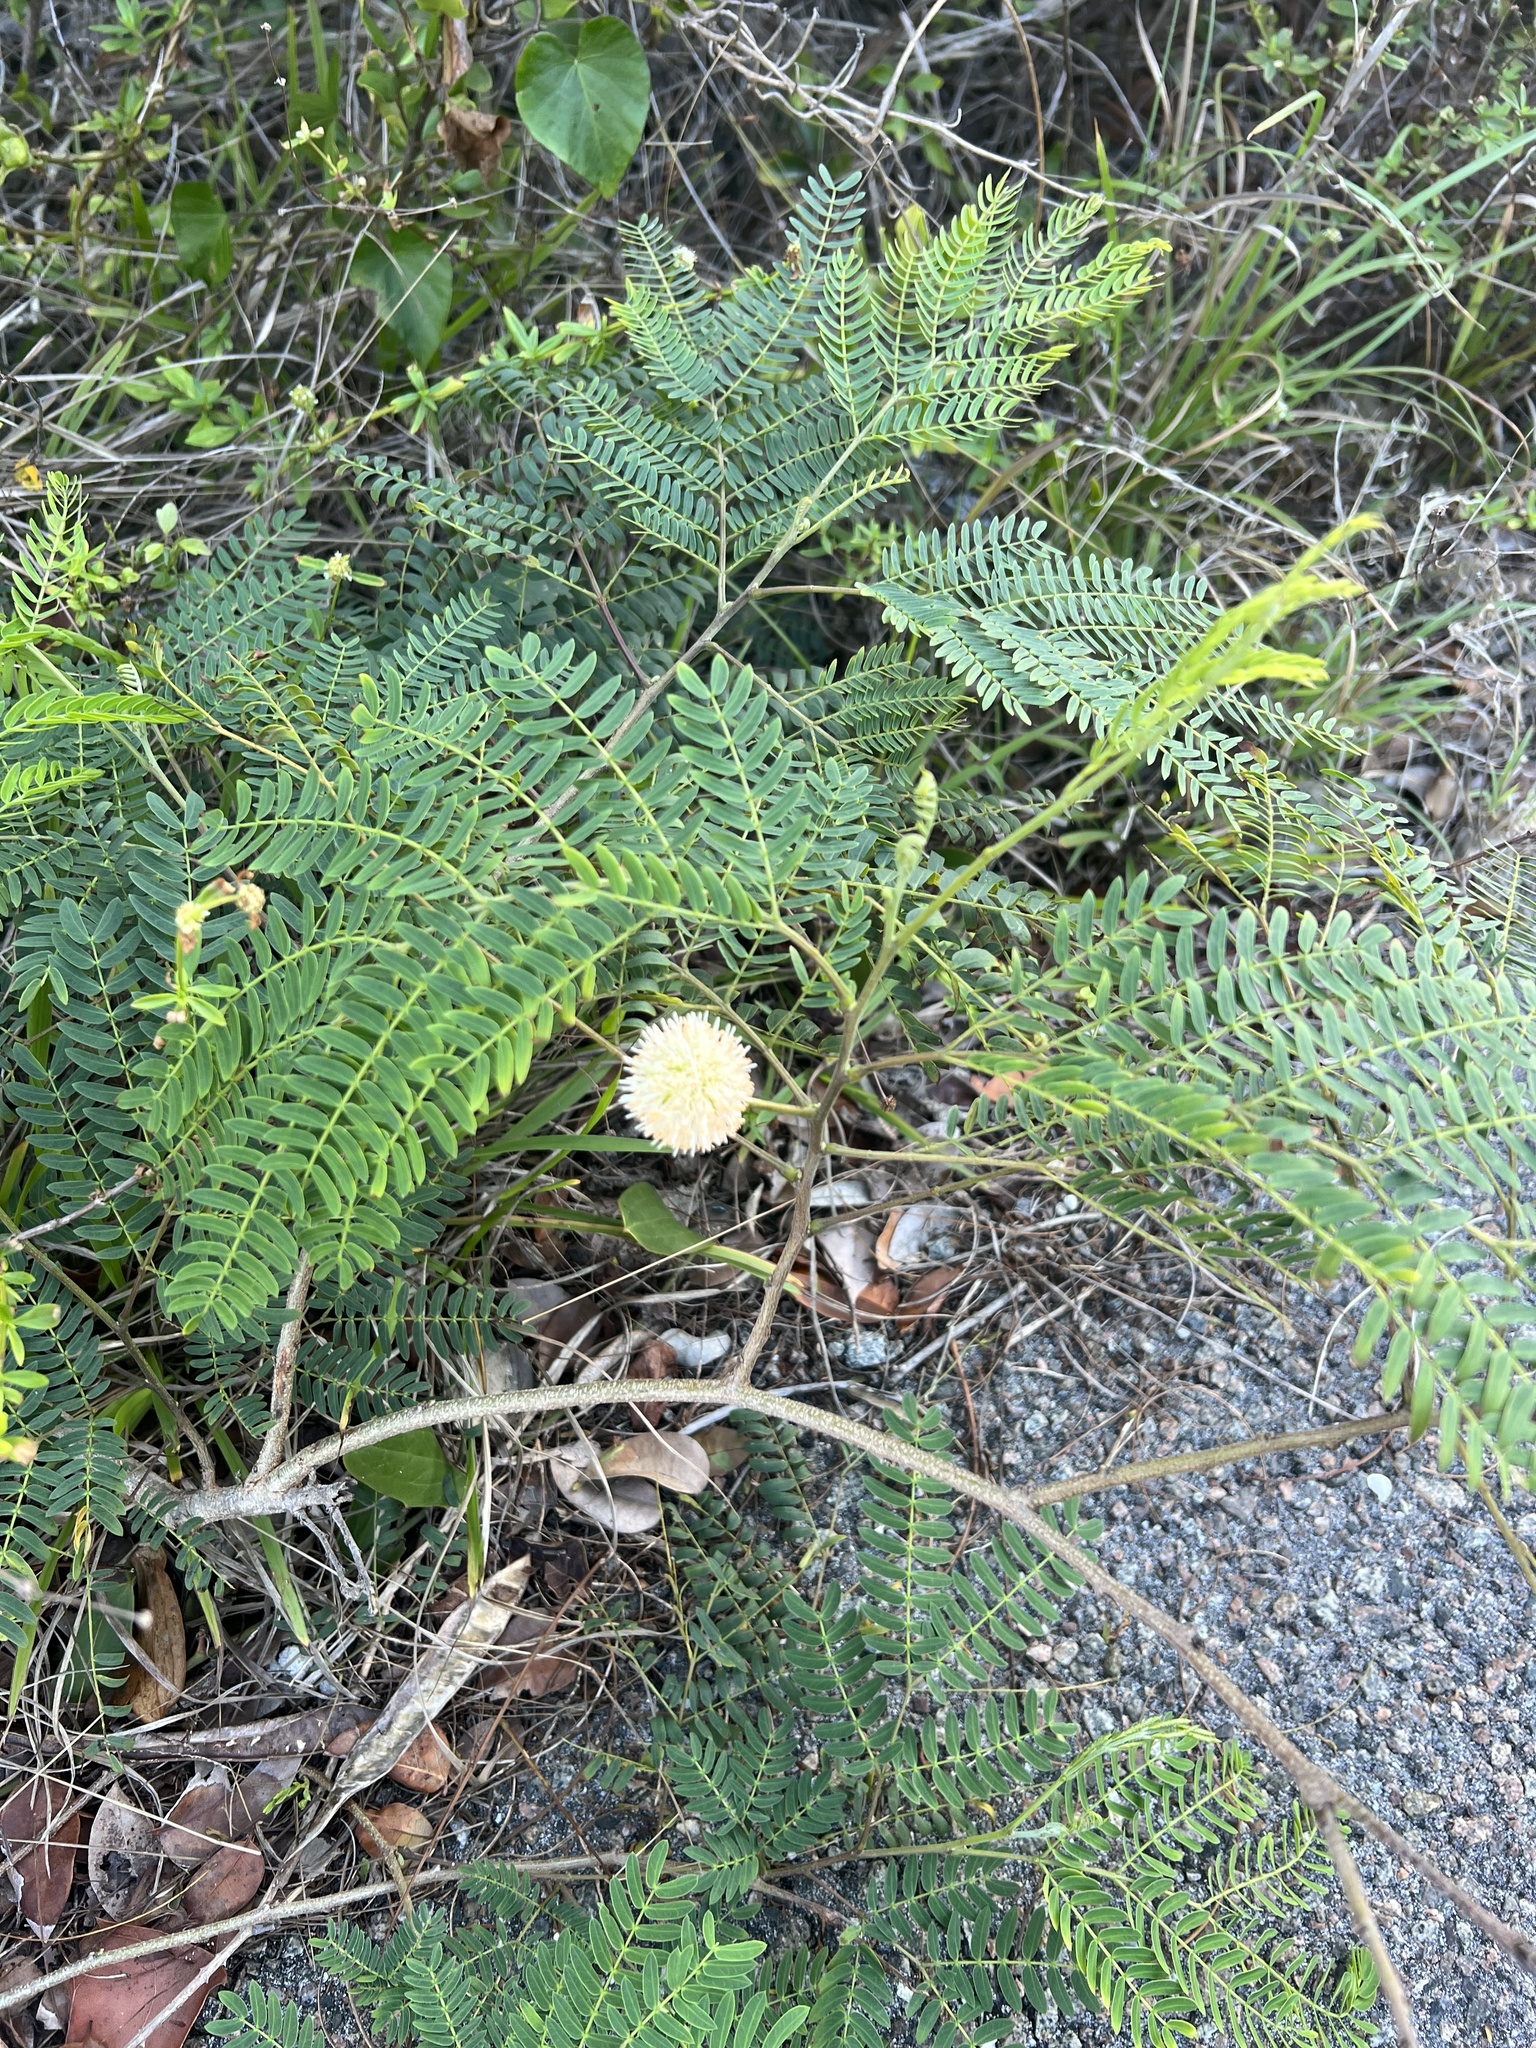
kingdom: Plantae
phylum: Tracheophyta
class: Magnoliopsida
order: Fabales
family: Fabaceae
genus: Leucaena
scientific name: Leucaena leucocephala
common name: White leadtree
